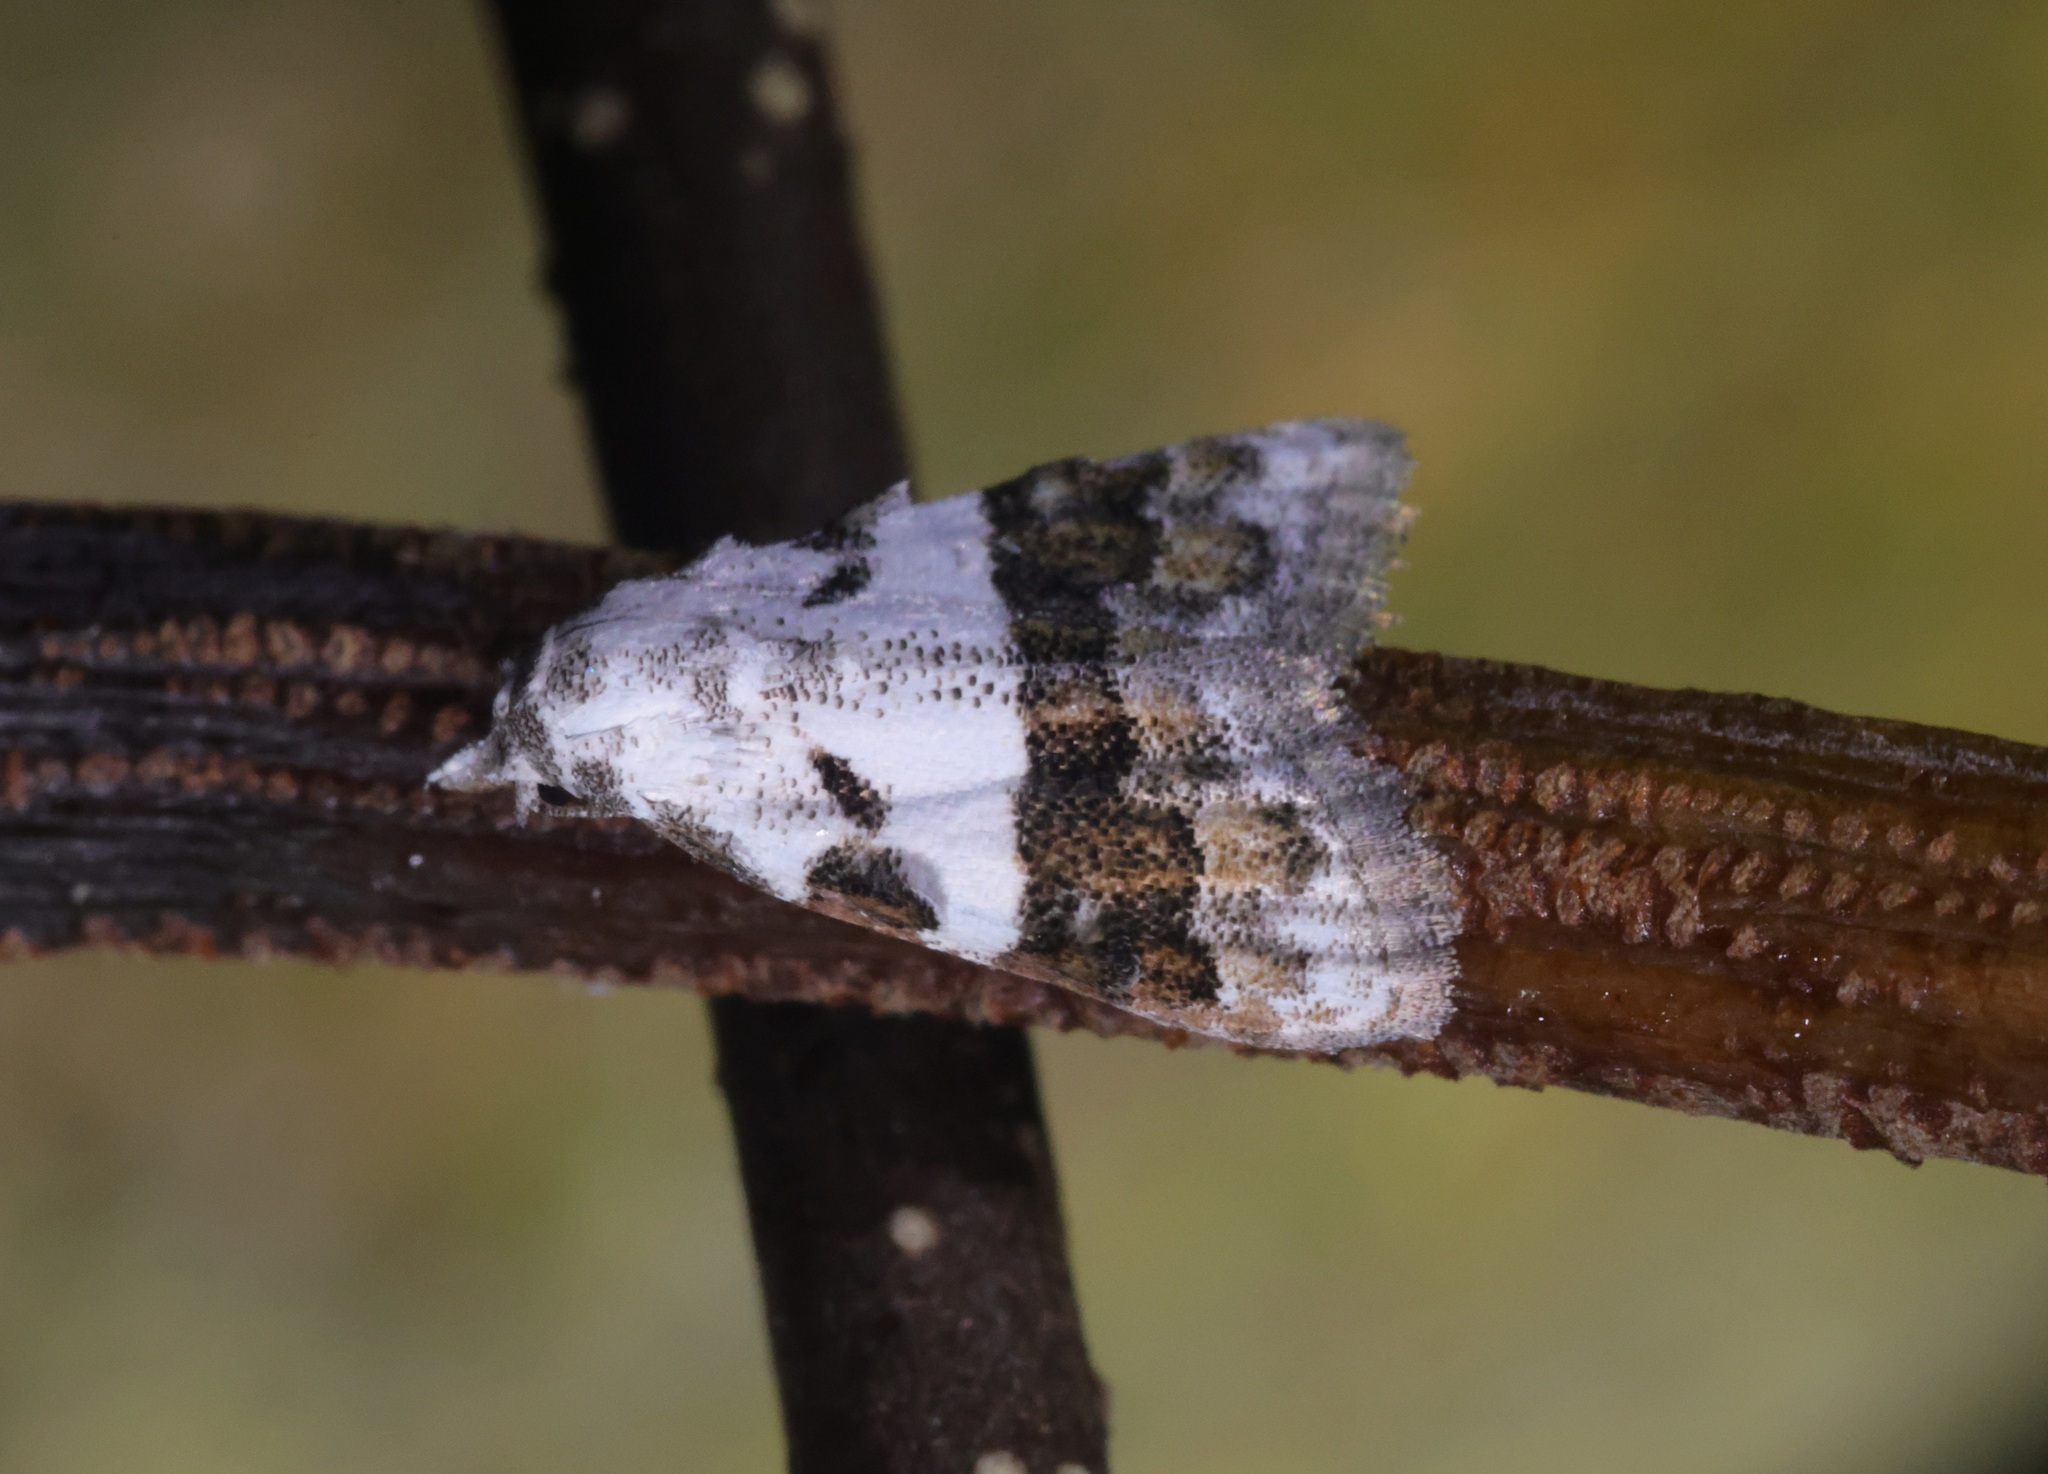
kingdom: Animalia
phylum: Arthropoda
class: Insecta
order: Lepidoptera
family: Nolidae
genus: Nola
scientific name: Nola lucidalis
